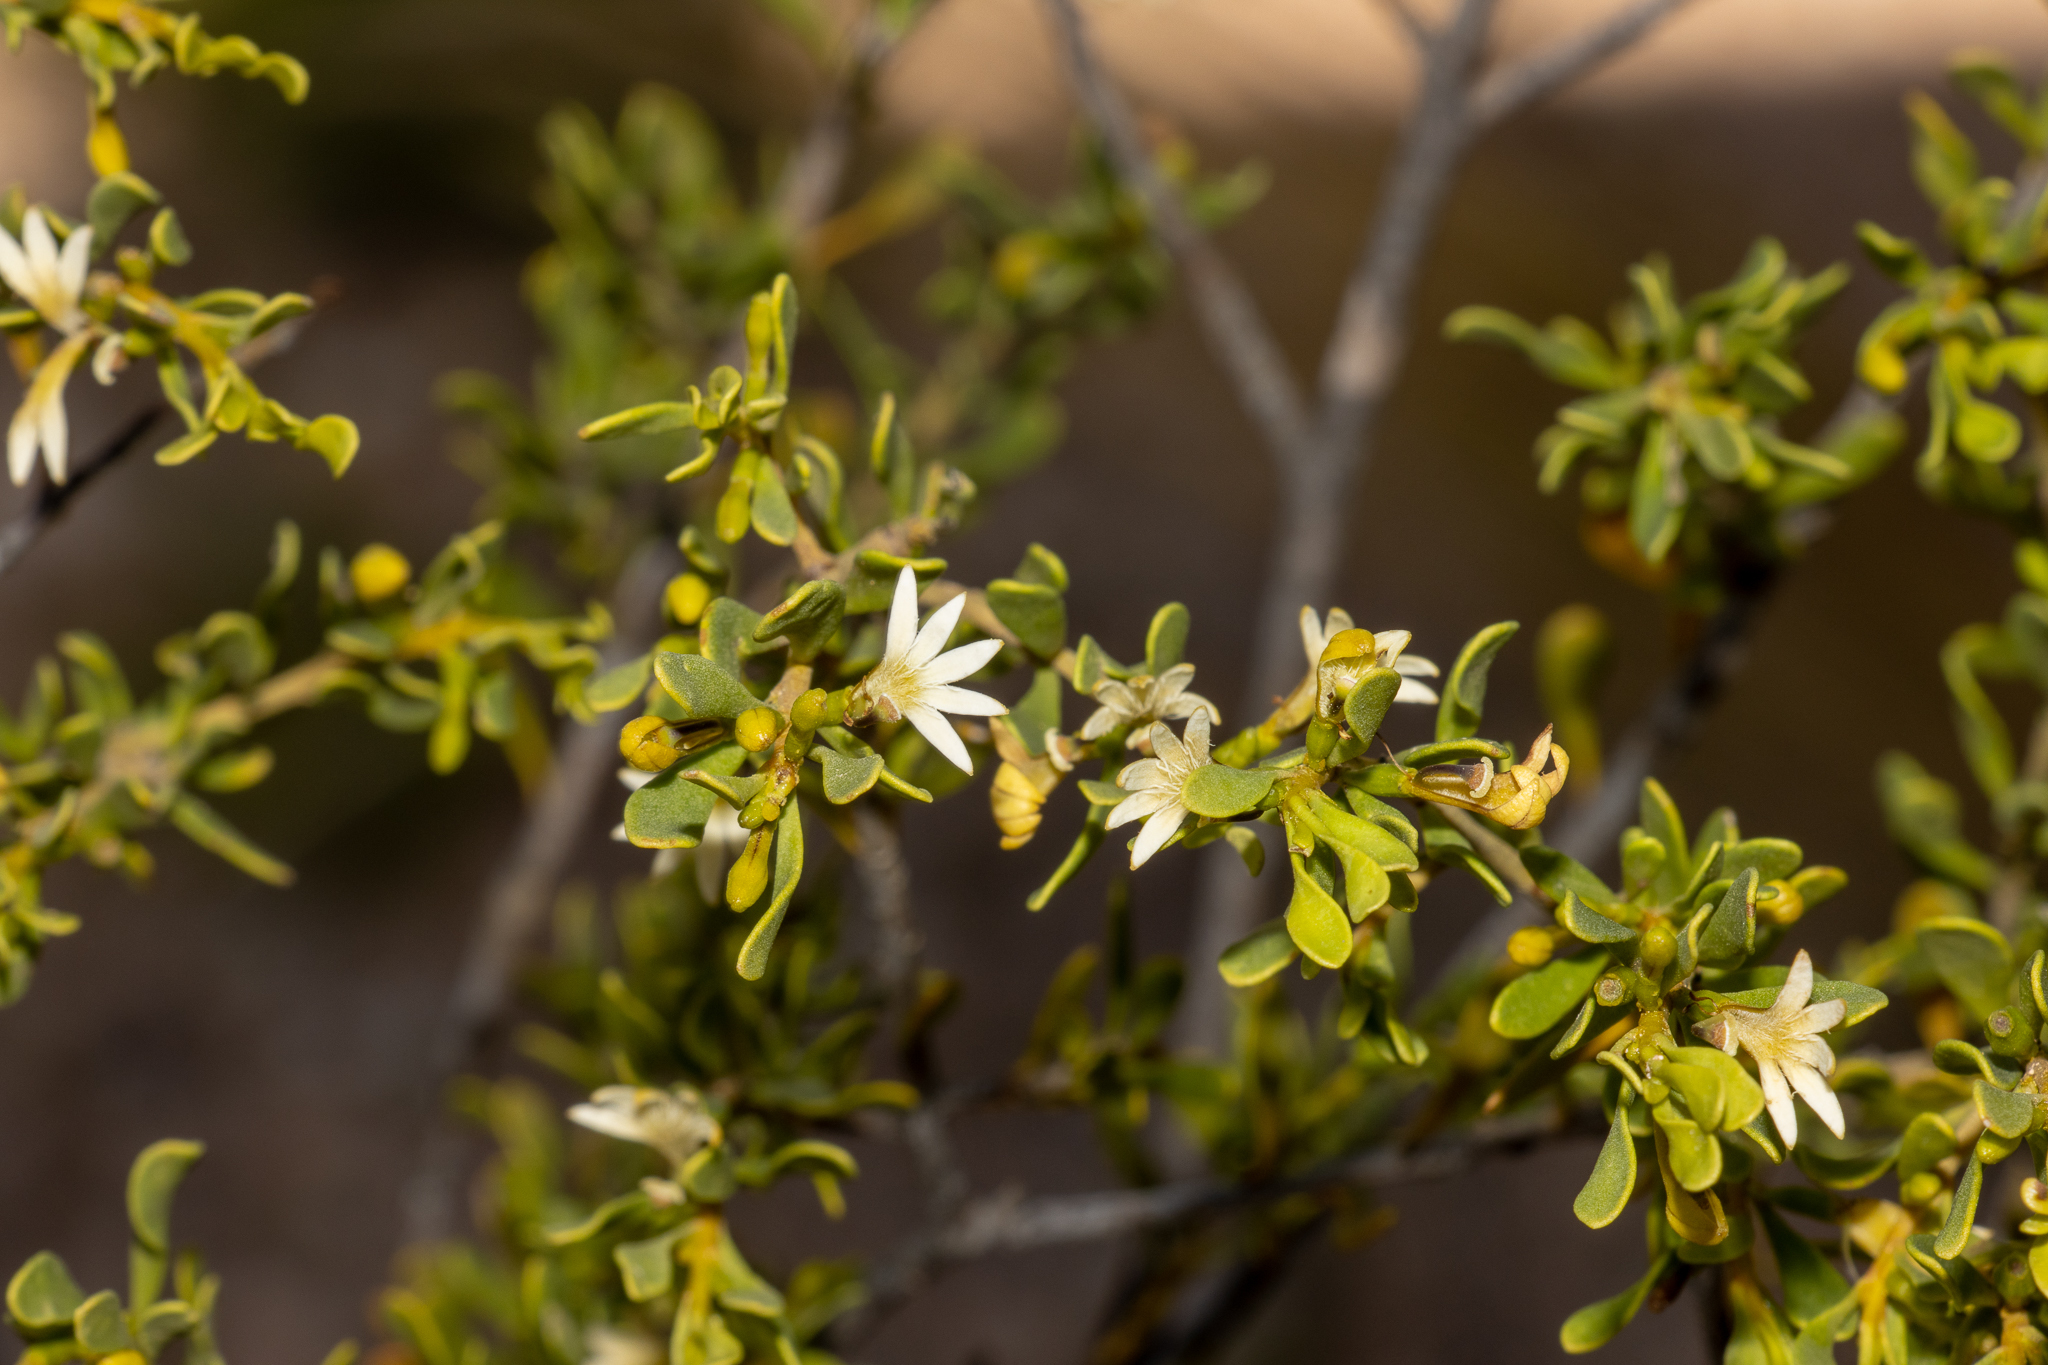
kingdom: Plantae
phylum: Tracheophyta
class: Magnoliopsida
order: Asterales
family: Goodeniaceae
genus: Scaevola
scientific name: Scaevola bursariifolia
